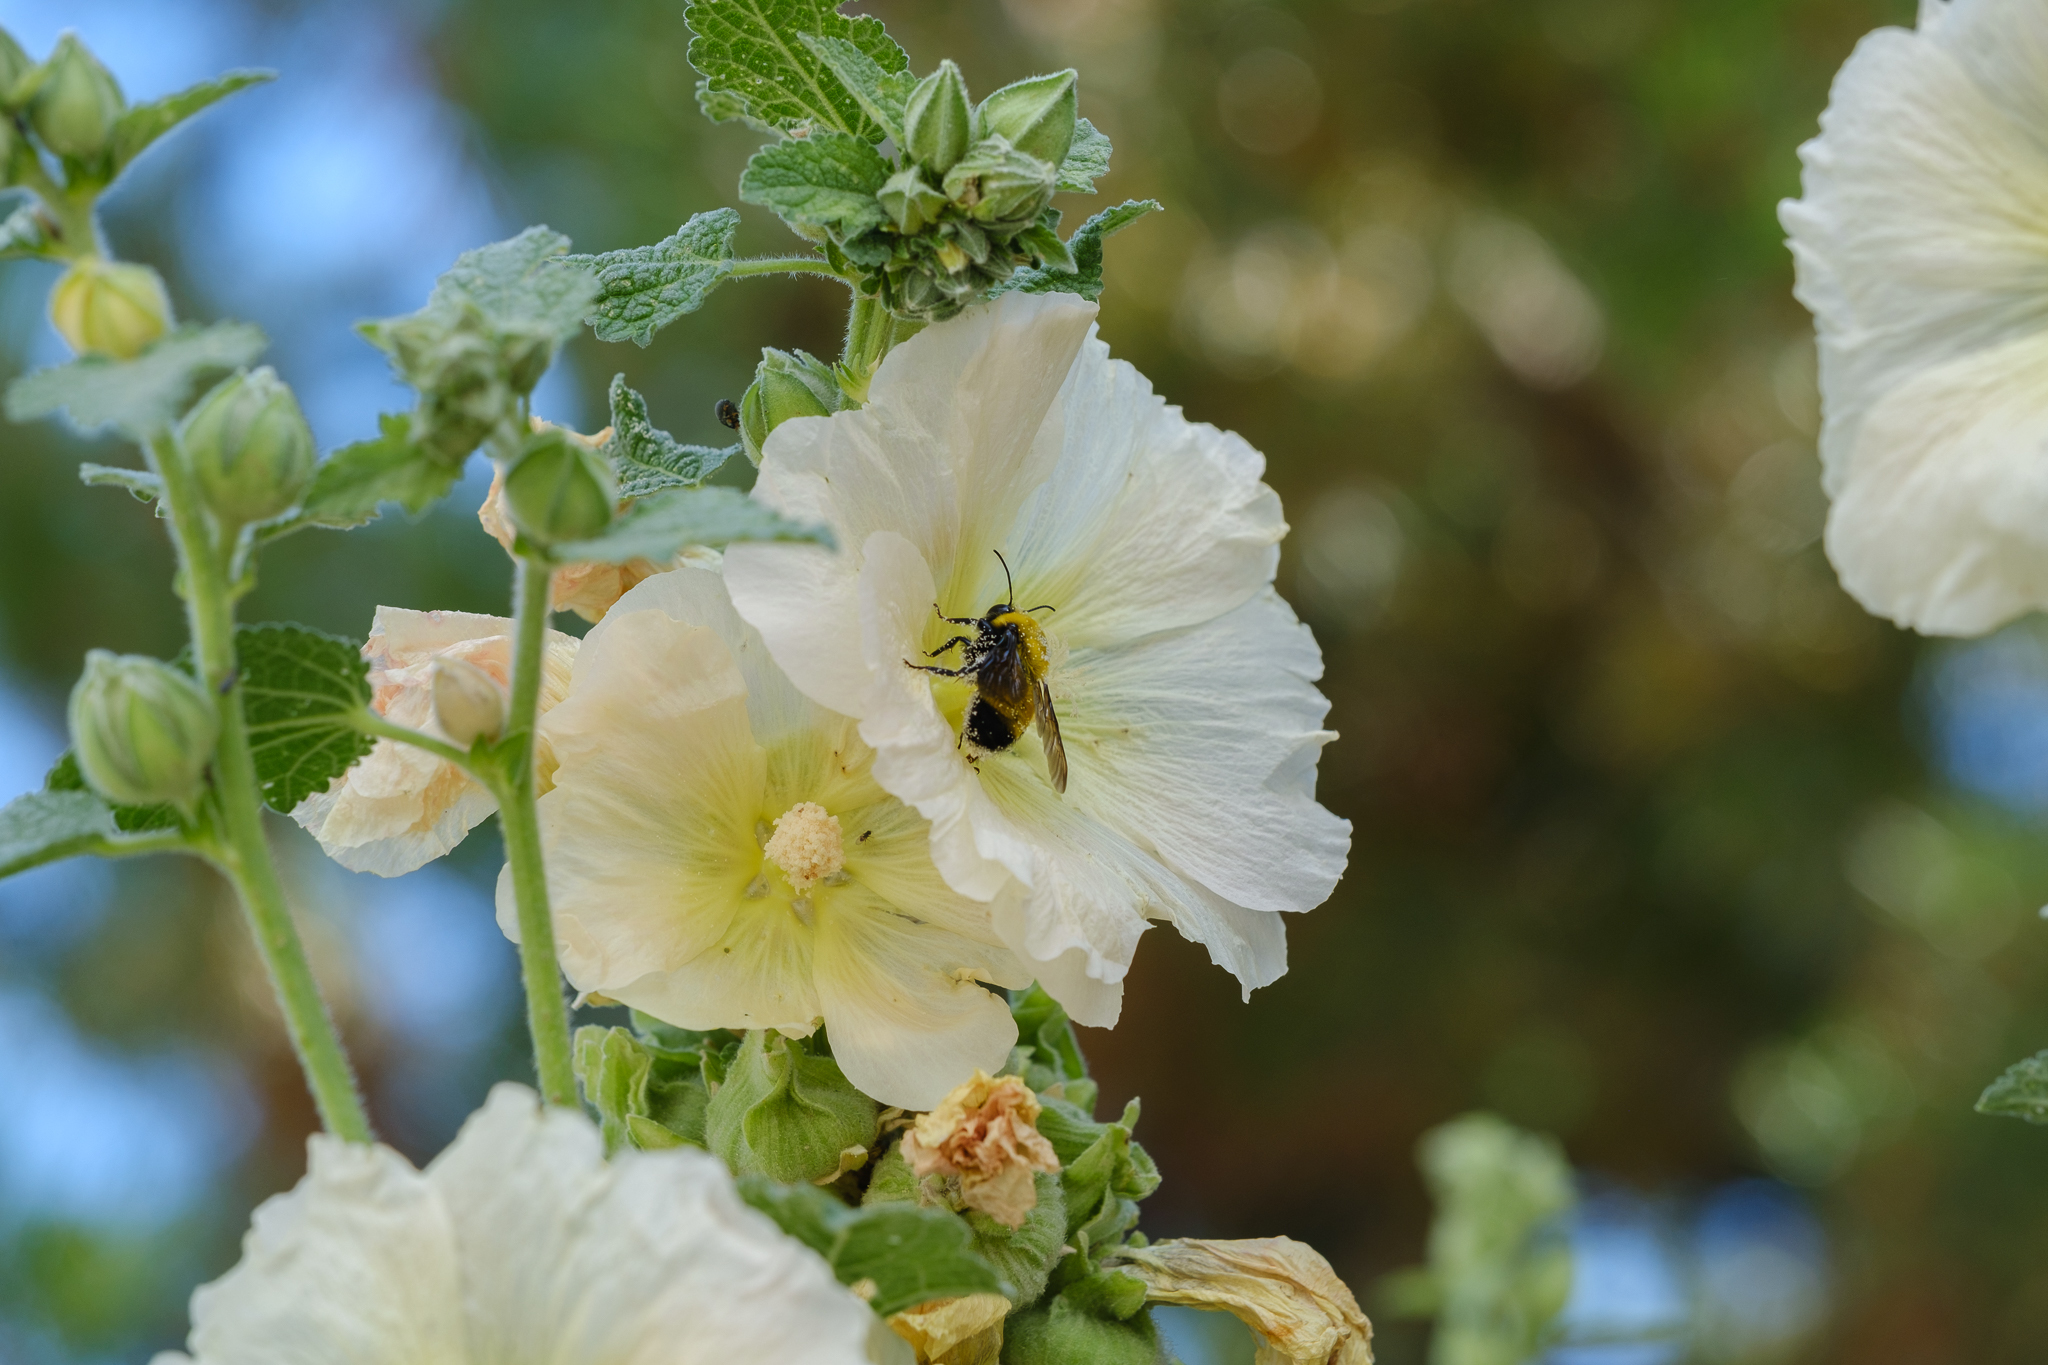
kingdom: Animalia
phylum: Arthropoda
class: Insecta
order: Hymenoptera
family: Apidae
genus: Bombus
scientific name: Bombus morrisoni
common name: Morrison bumble bee
